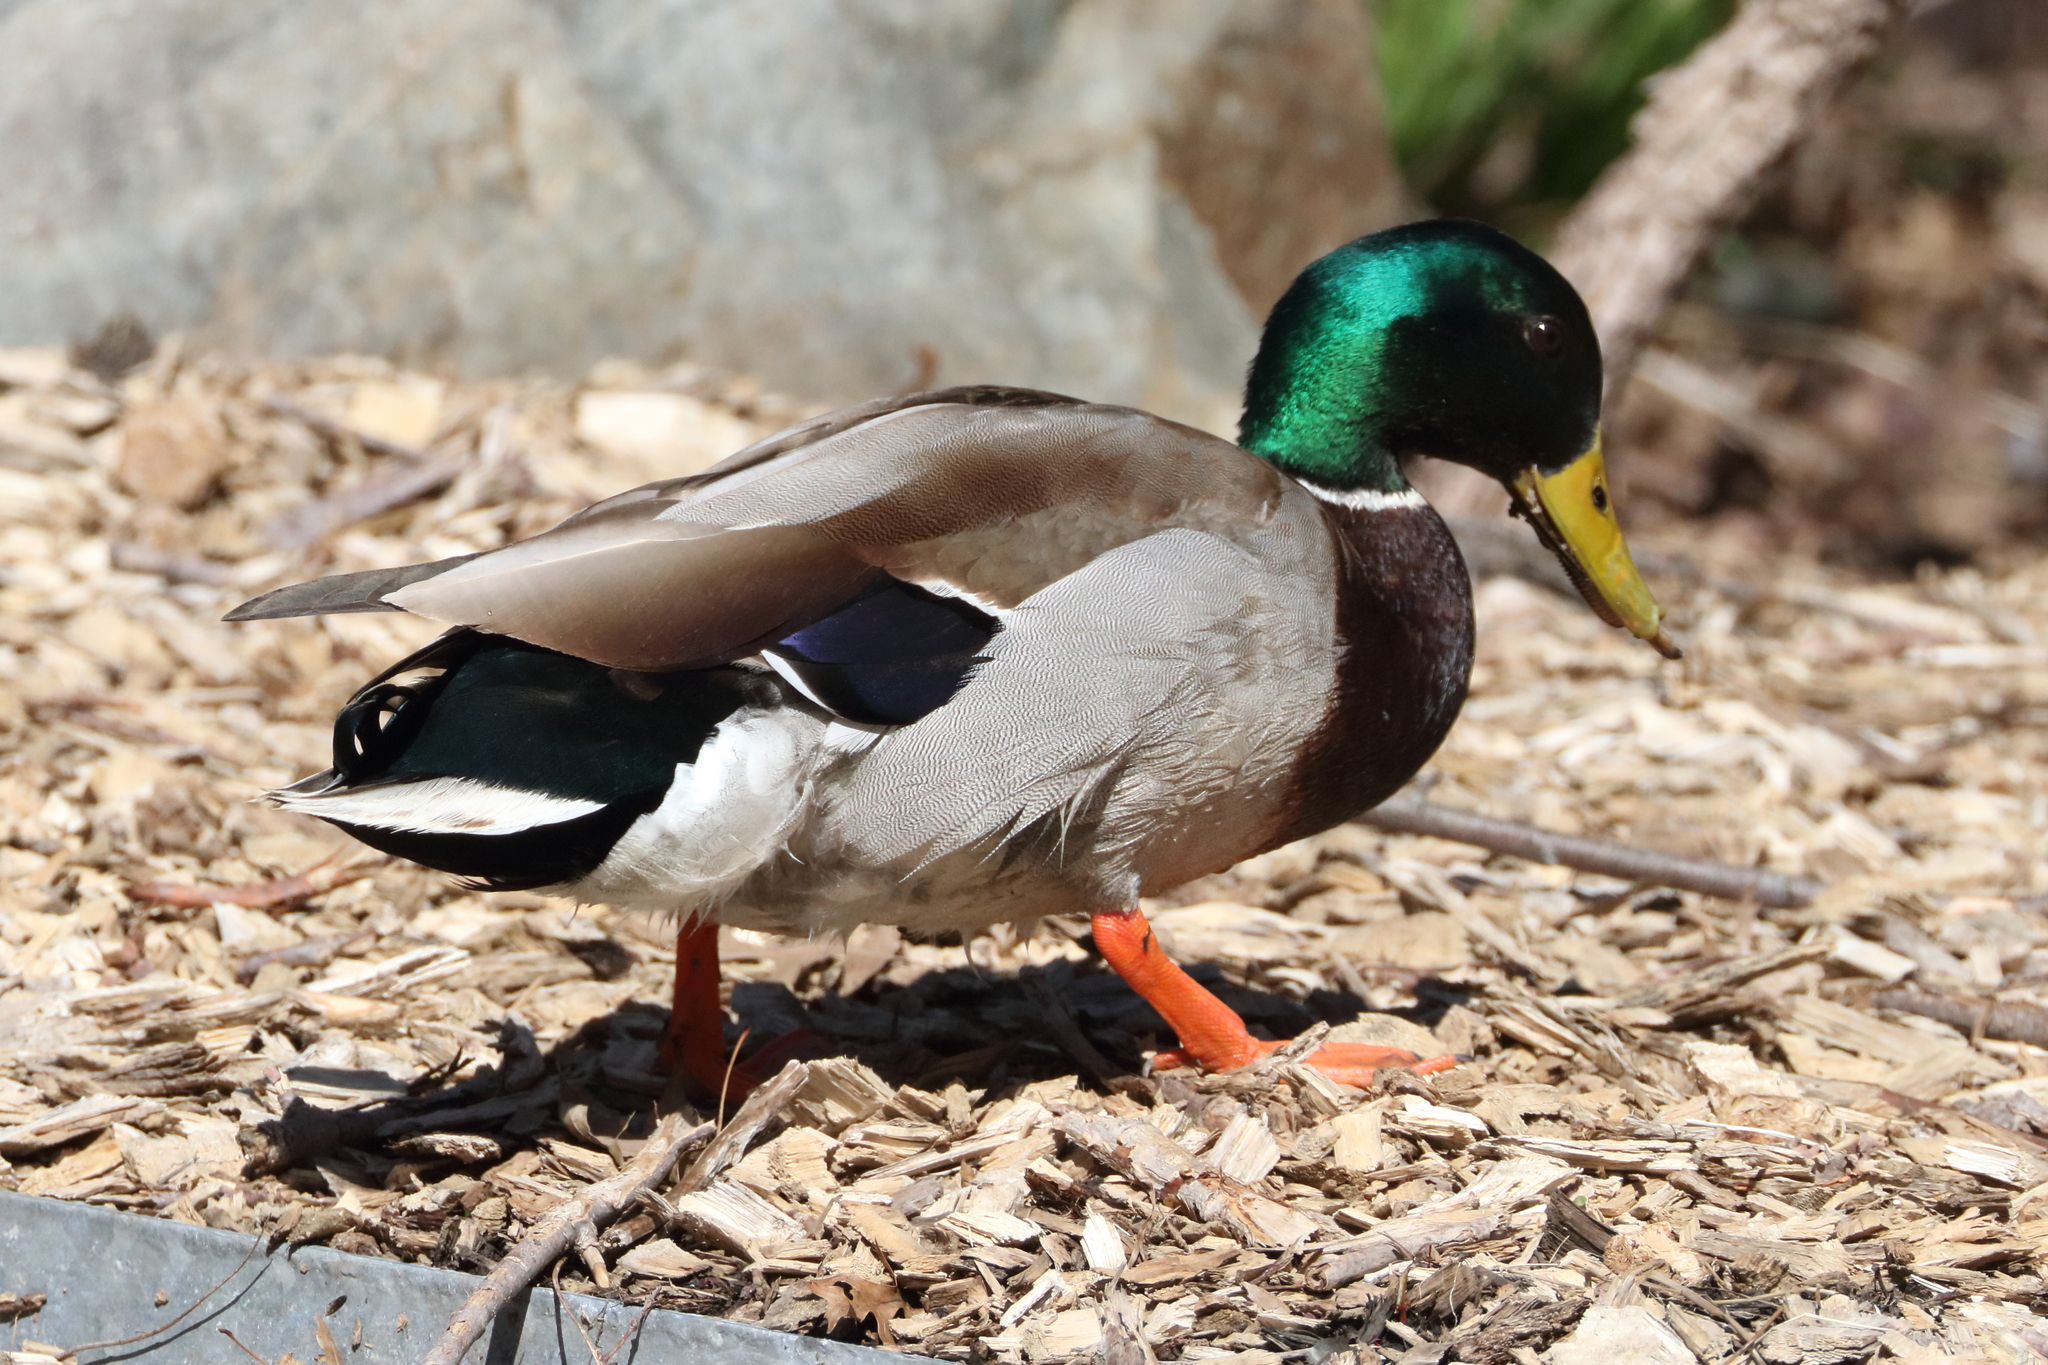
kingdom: Animalia
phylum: Chordata
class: Aves
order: Anseriformes
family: Anatidae
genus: Anas
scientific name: Anas platyrhynchos
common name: Mallard
